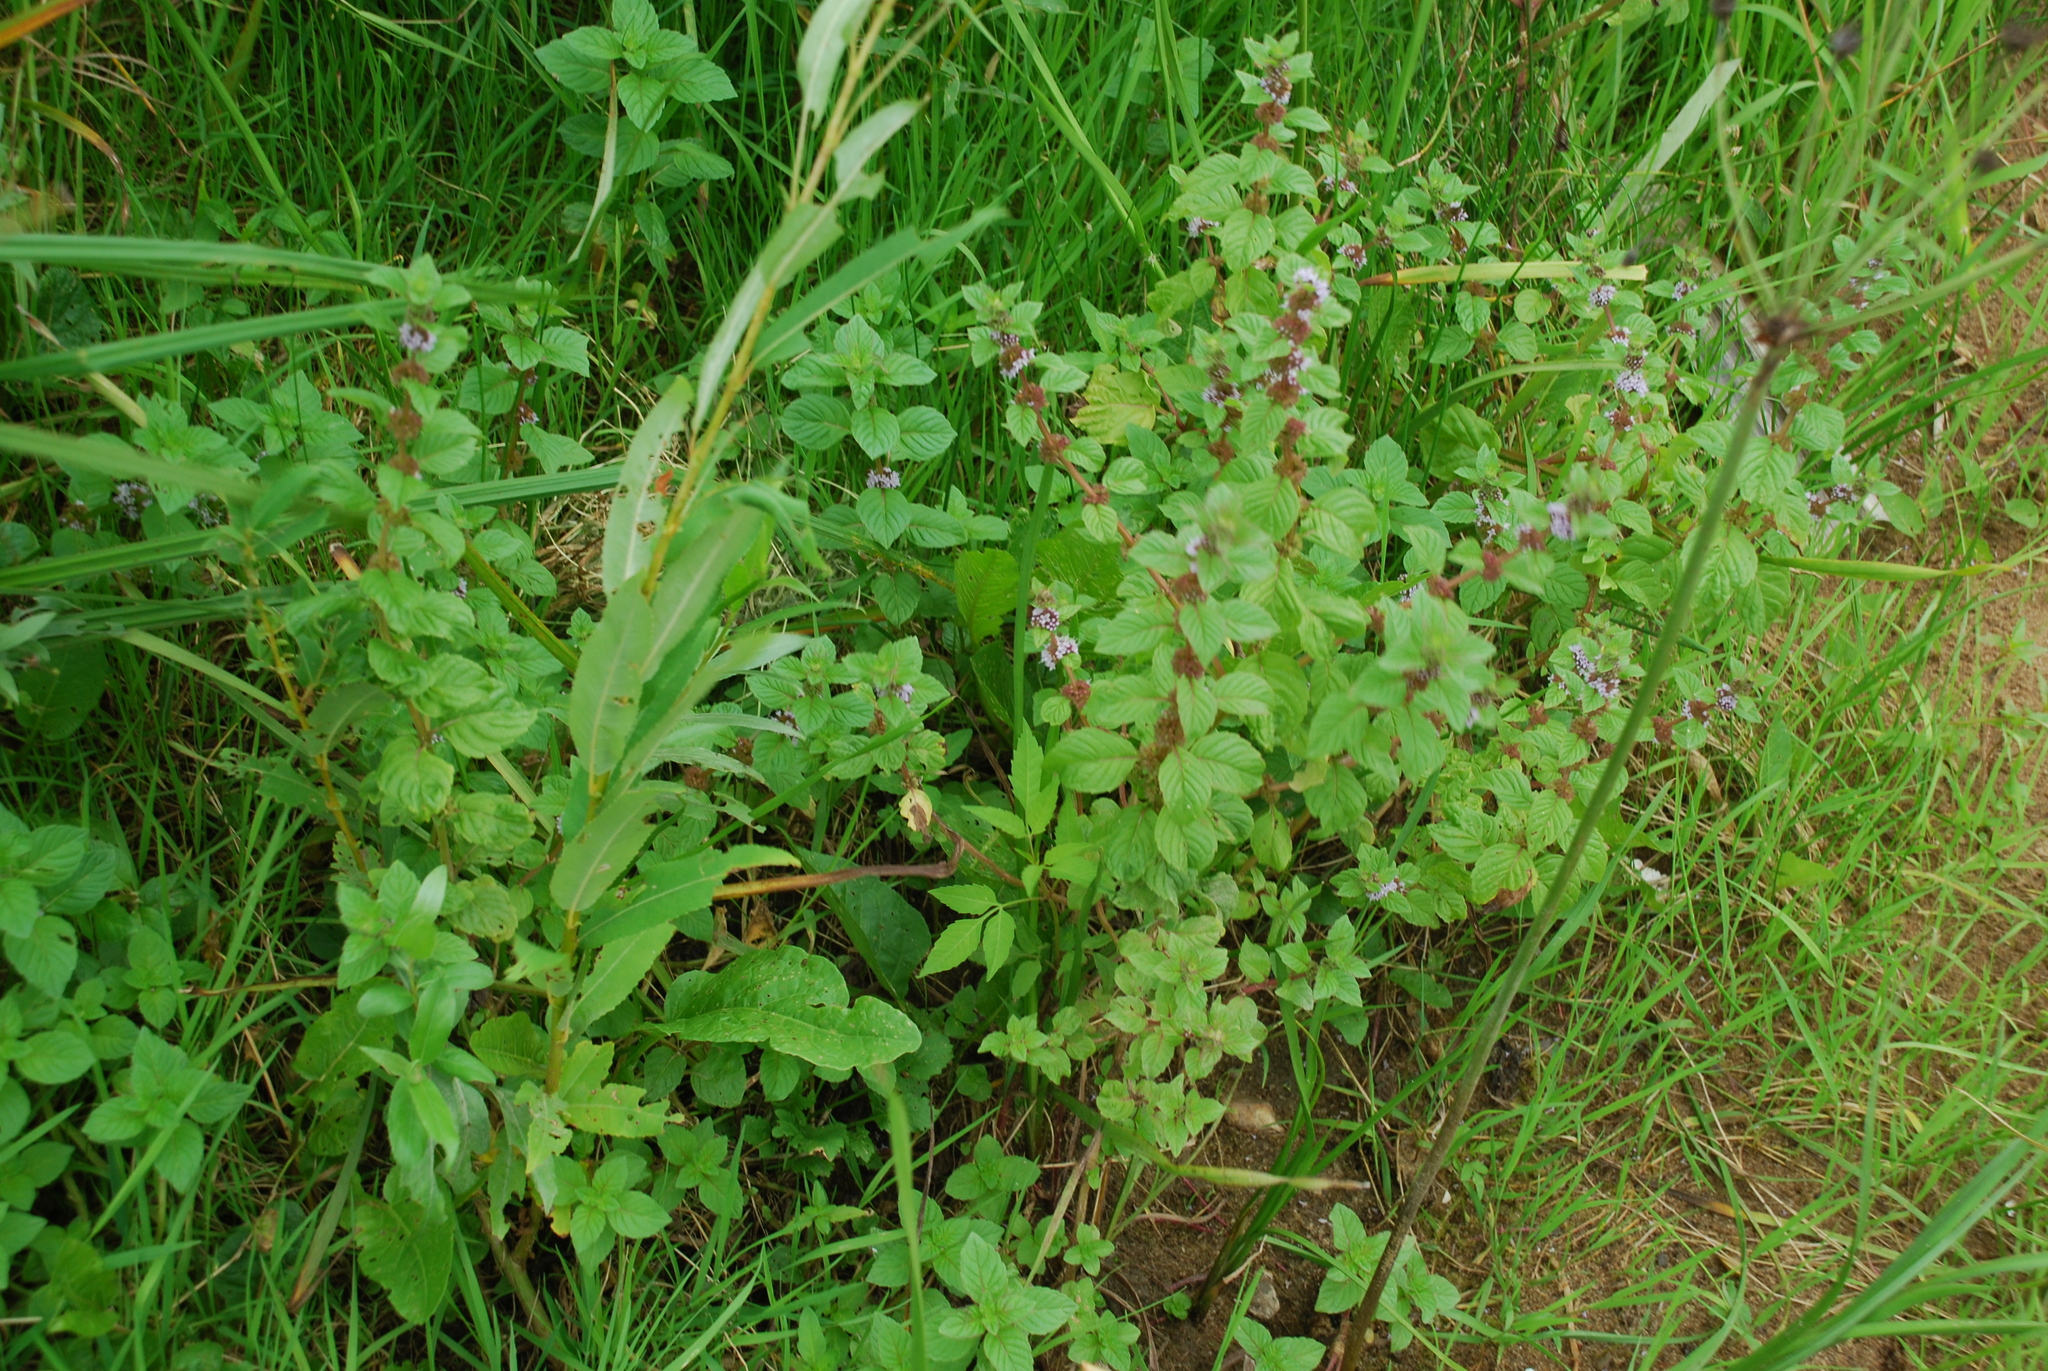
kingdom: Plantae
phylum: Tracheophyta
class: Magnoliopsida
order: Lamiales
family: Lamiaceae
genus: Mentha
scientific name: Mentha arvensis
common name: Corn mint
